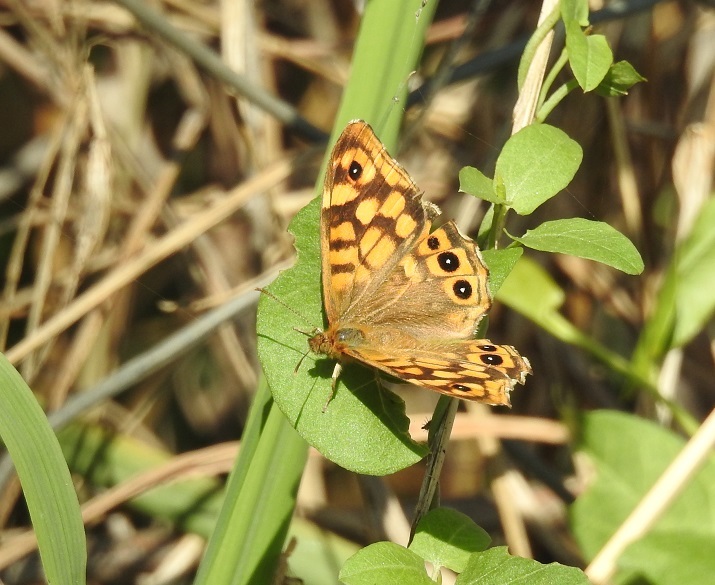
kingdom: Animalia
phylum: Arthropoda
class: Insecta
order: Lepidoptera
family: Nymphalidae
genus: Pararge
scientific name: Pararge aegeria
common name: Speckled wood
